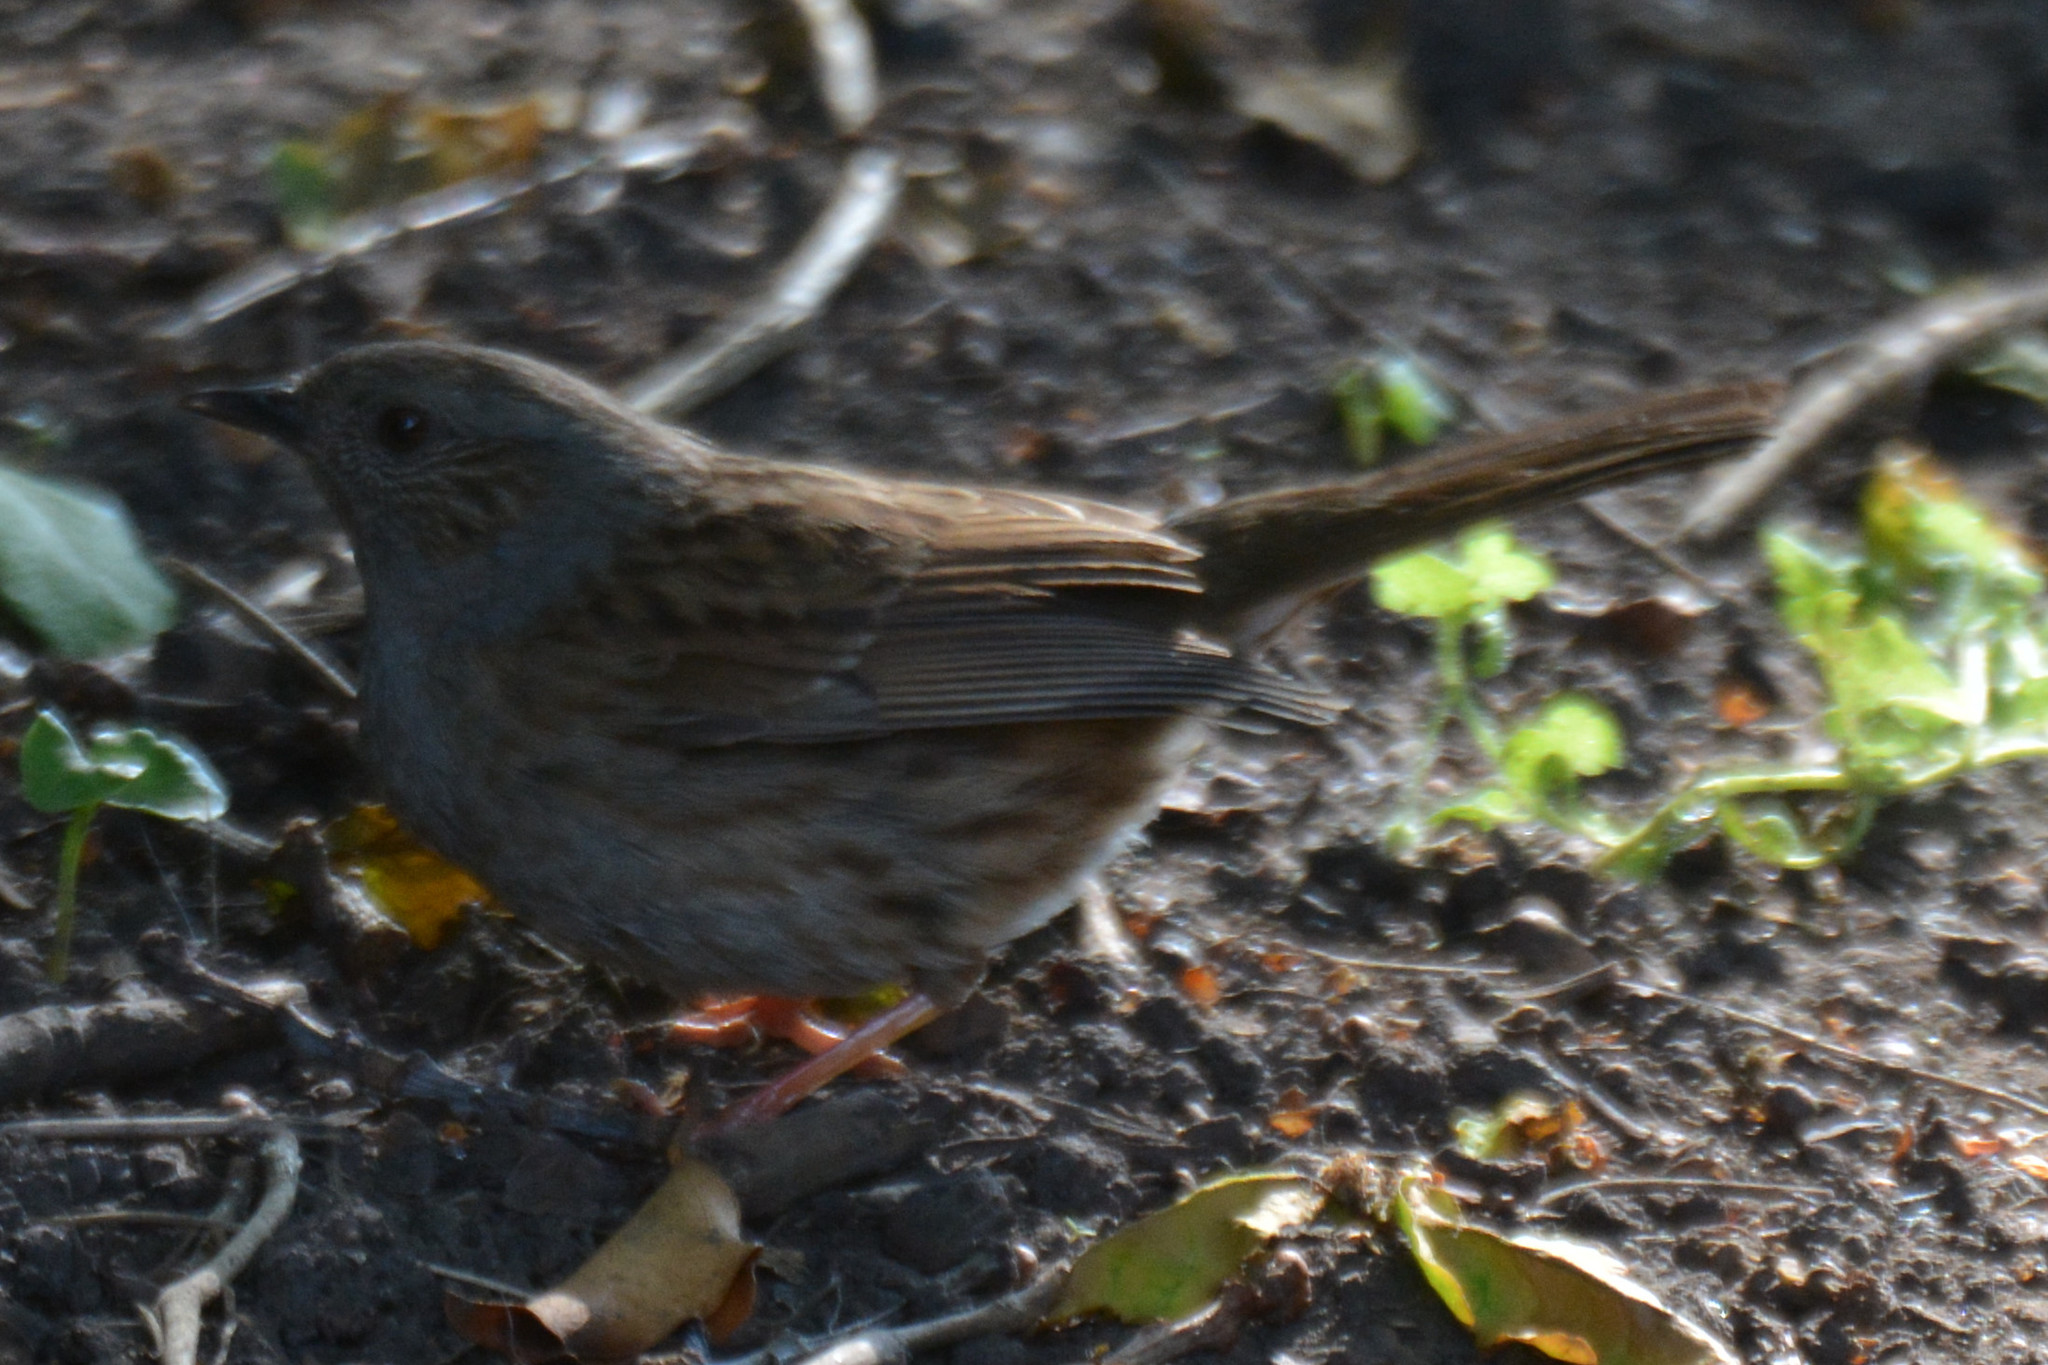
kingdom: Animalia
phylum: Chordata
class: Aves
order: Passeriformes
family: Prunellidae
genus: Prunella
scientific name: Prunella modularis
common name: Dunnock
